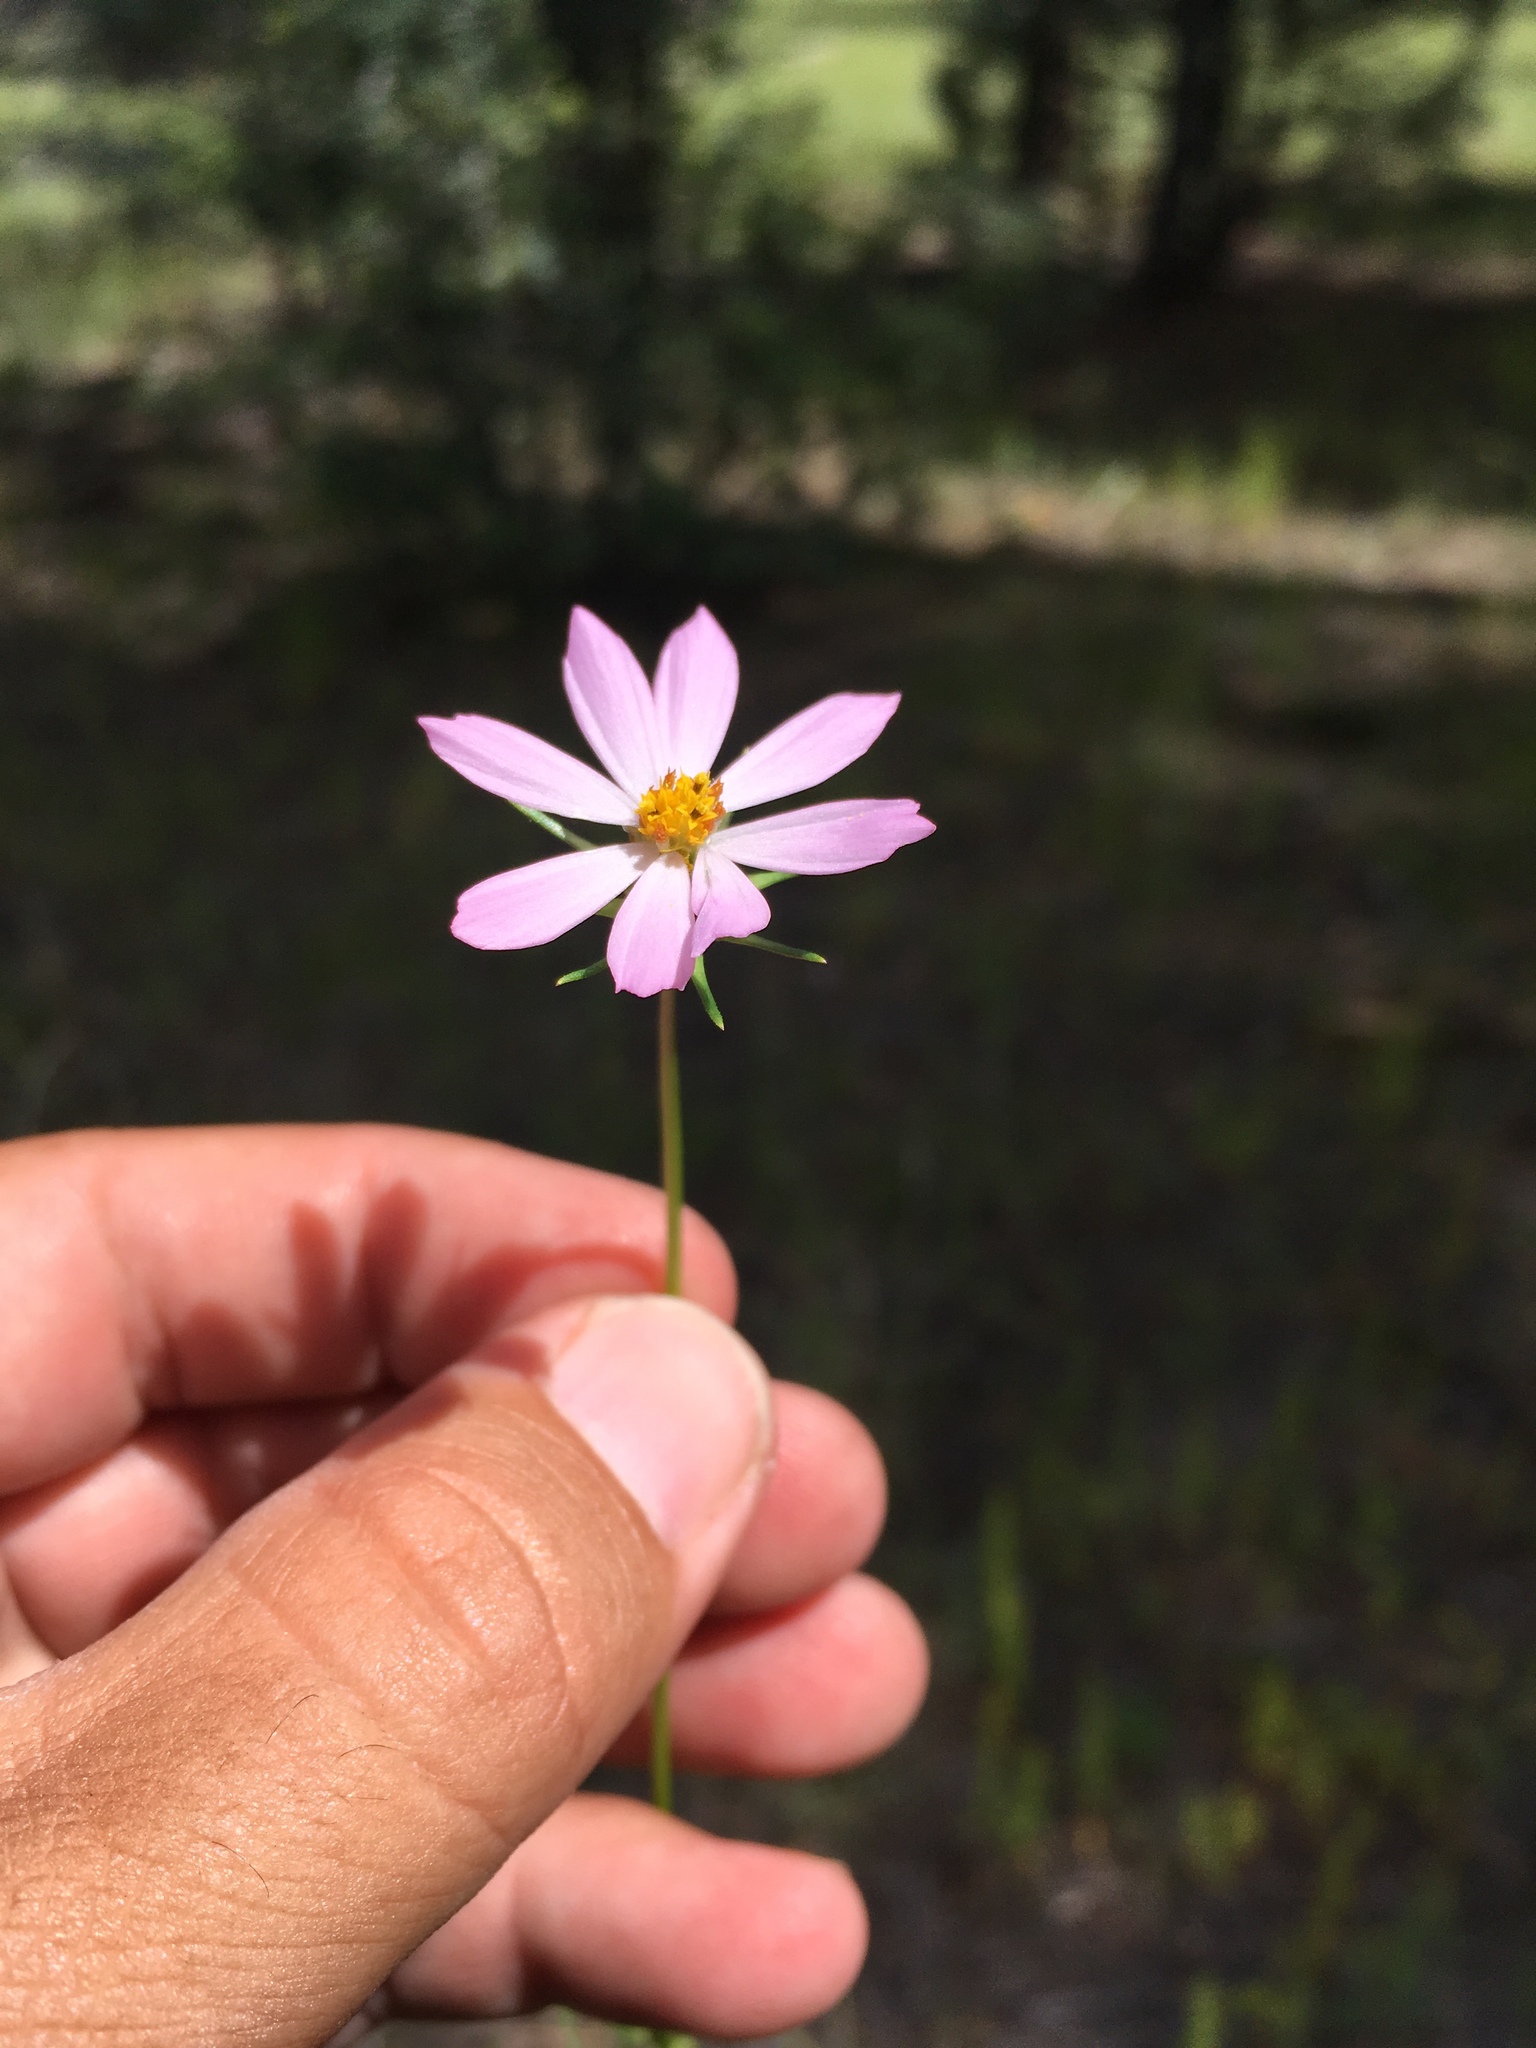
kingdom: Plantae
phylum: Tracheophyta
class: Magnoliopsida
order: Asterales
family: Asteraceae
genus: Cosmos
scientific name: Cosmos parviflorus
